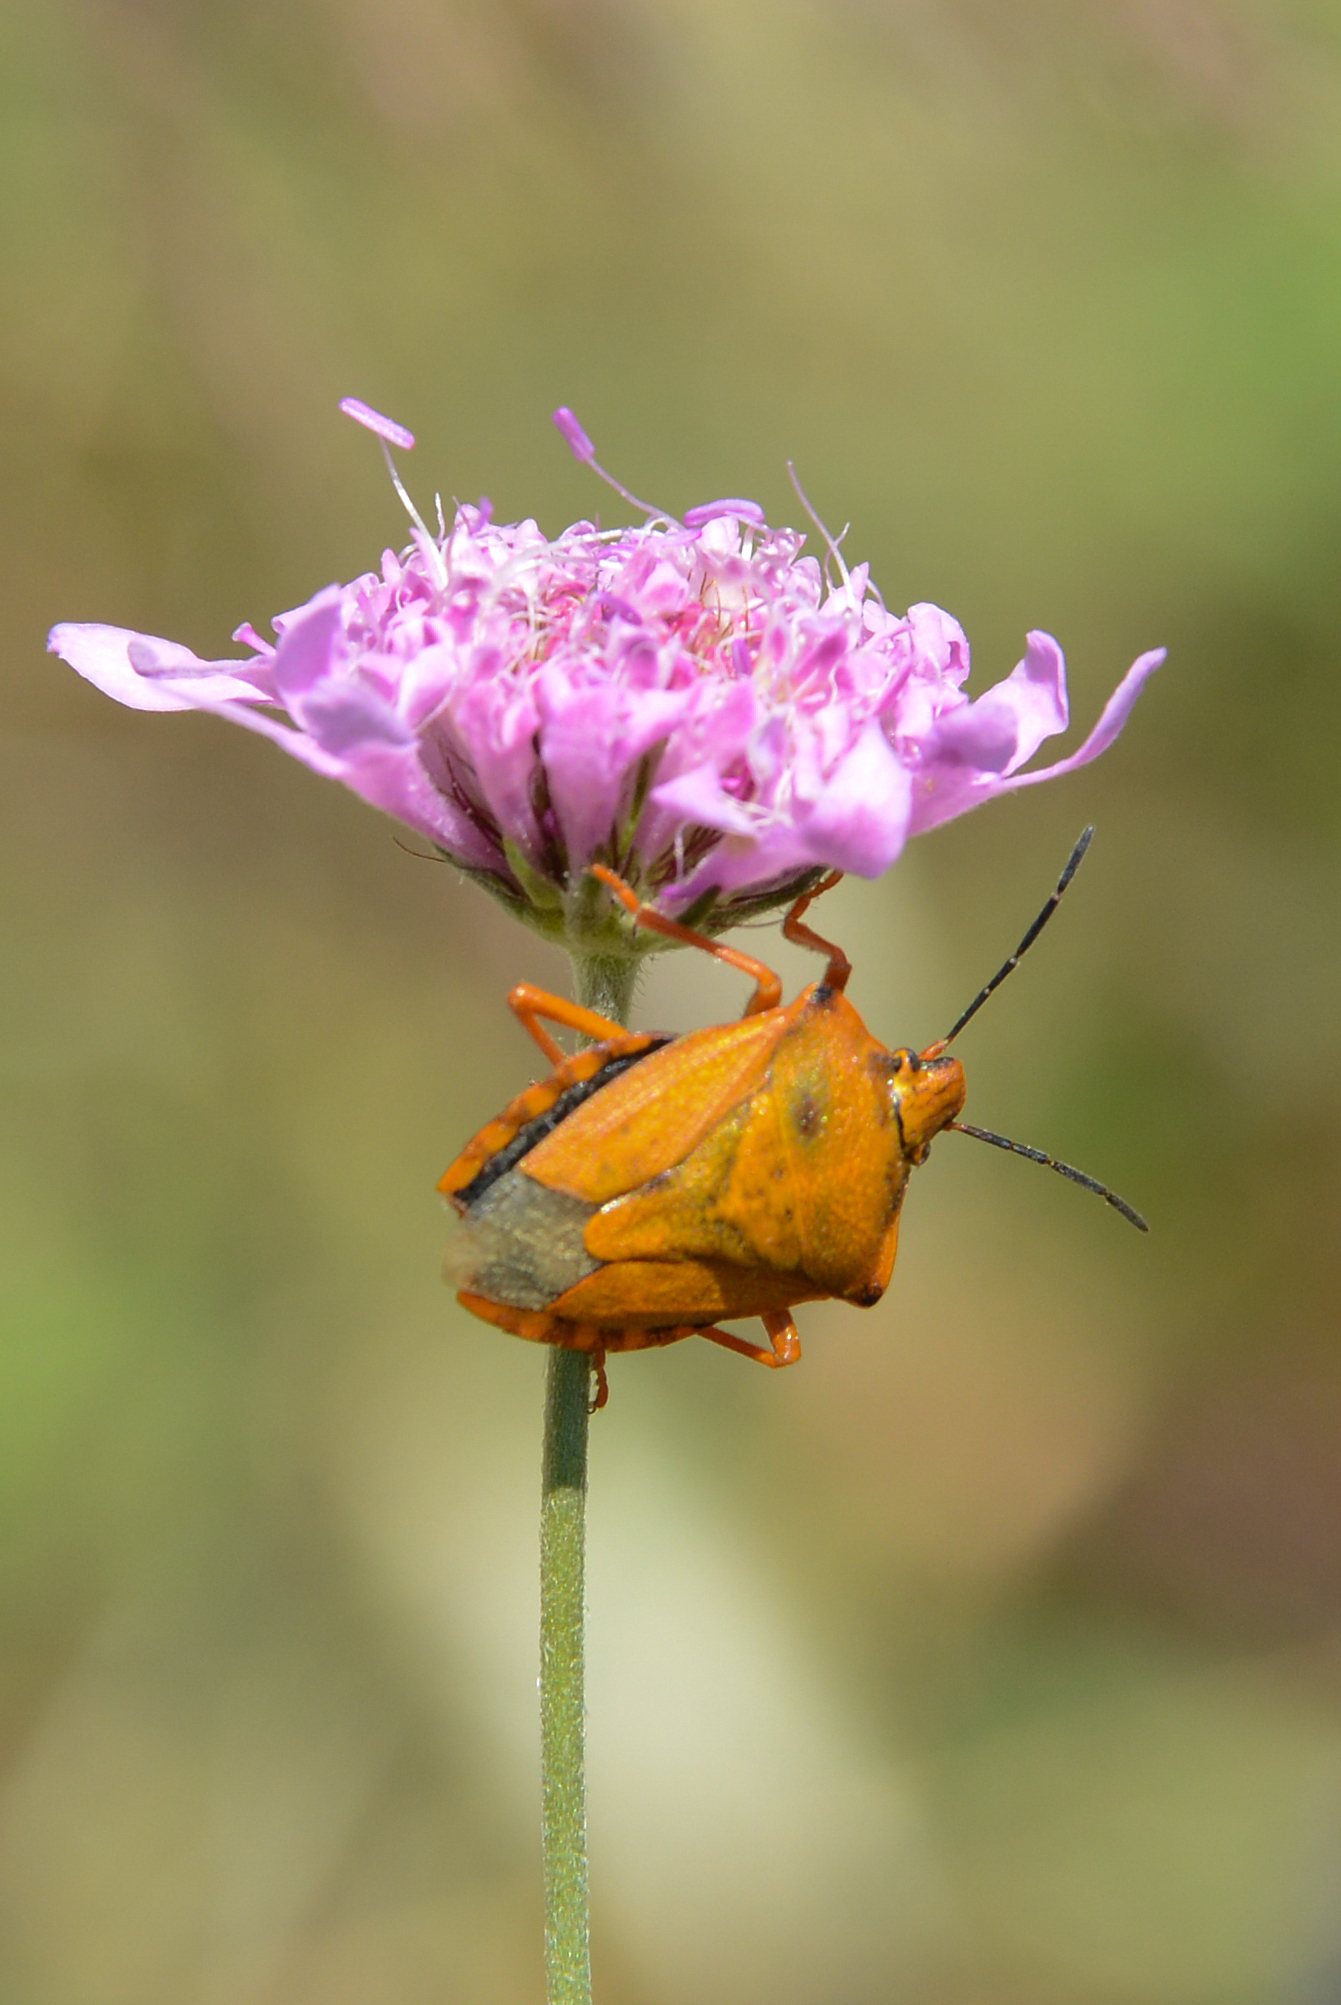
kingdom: Animalia
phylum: Arthropoda
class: Insecta
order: Hemiptera
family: Pentatomidae
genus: Carpocoris
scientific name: Carpocoris mediterraneus
